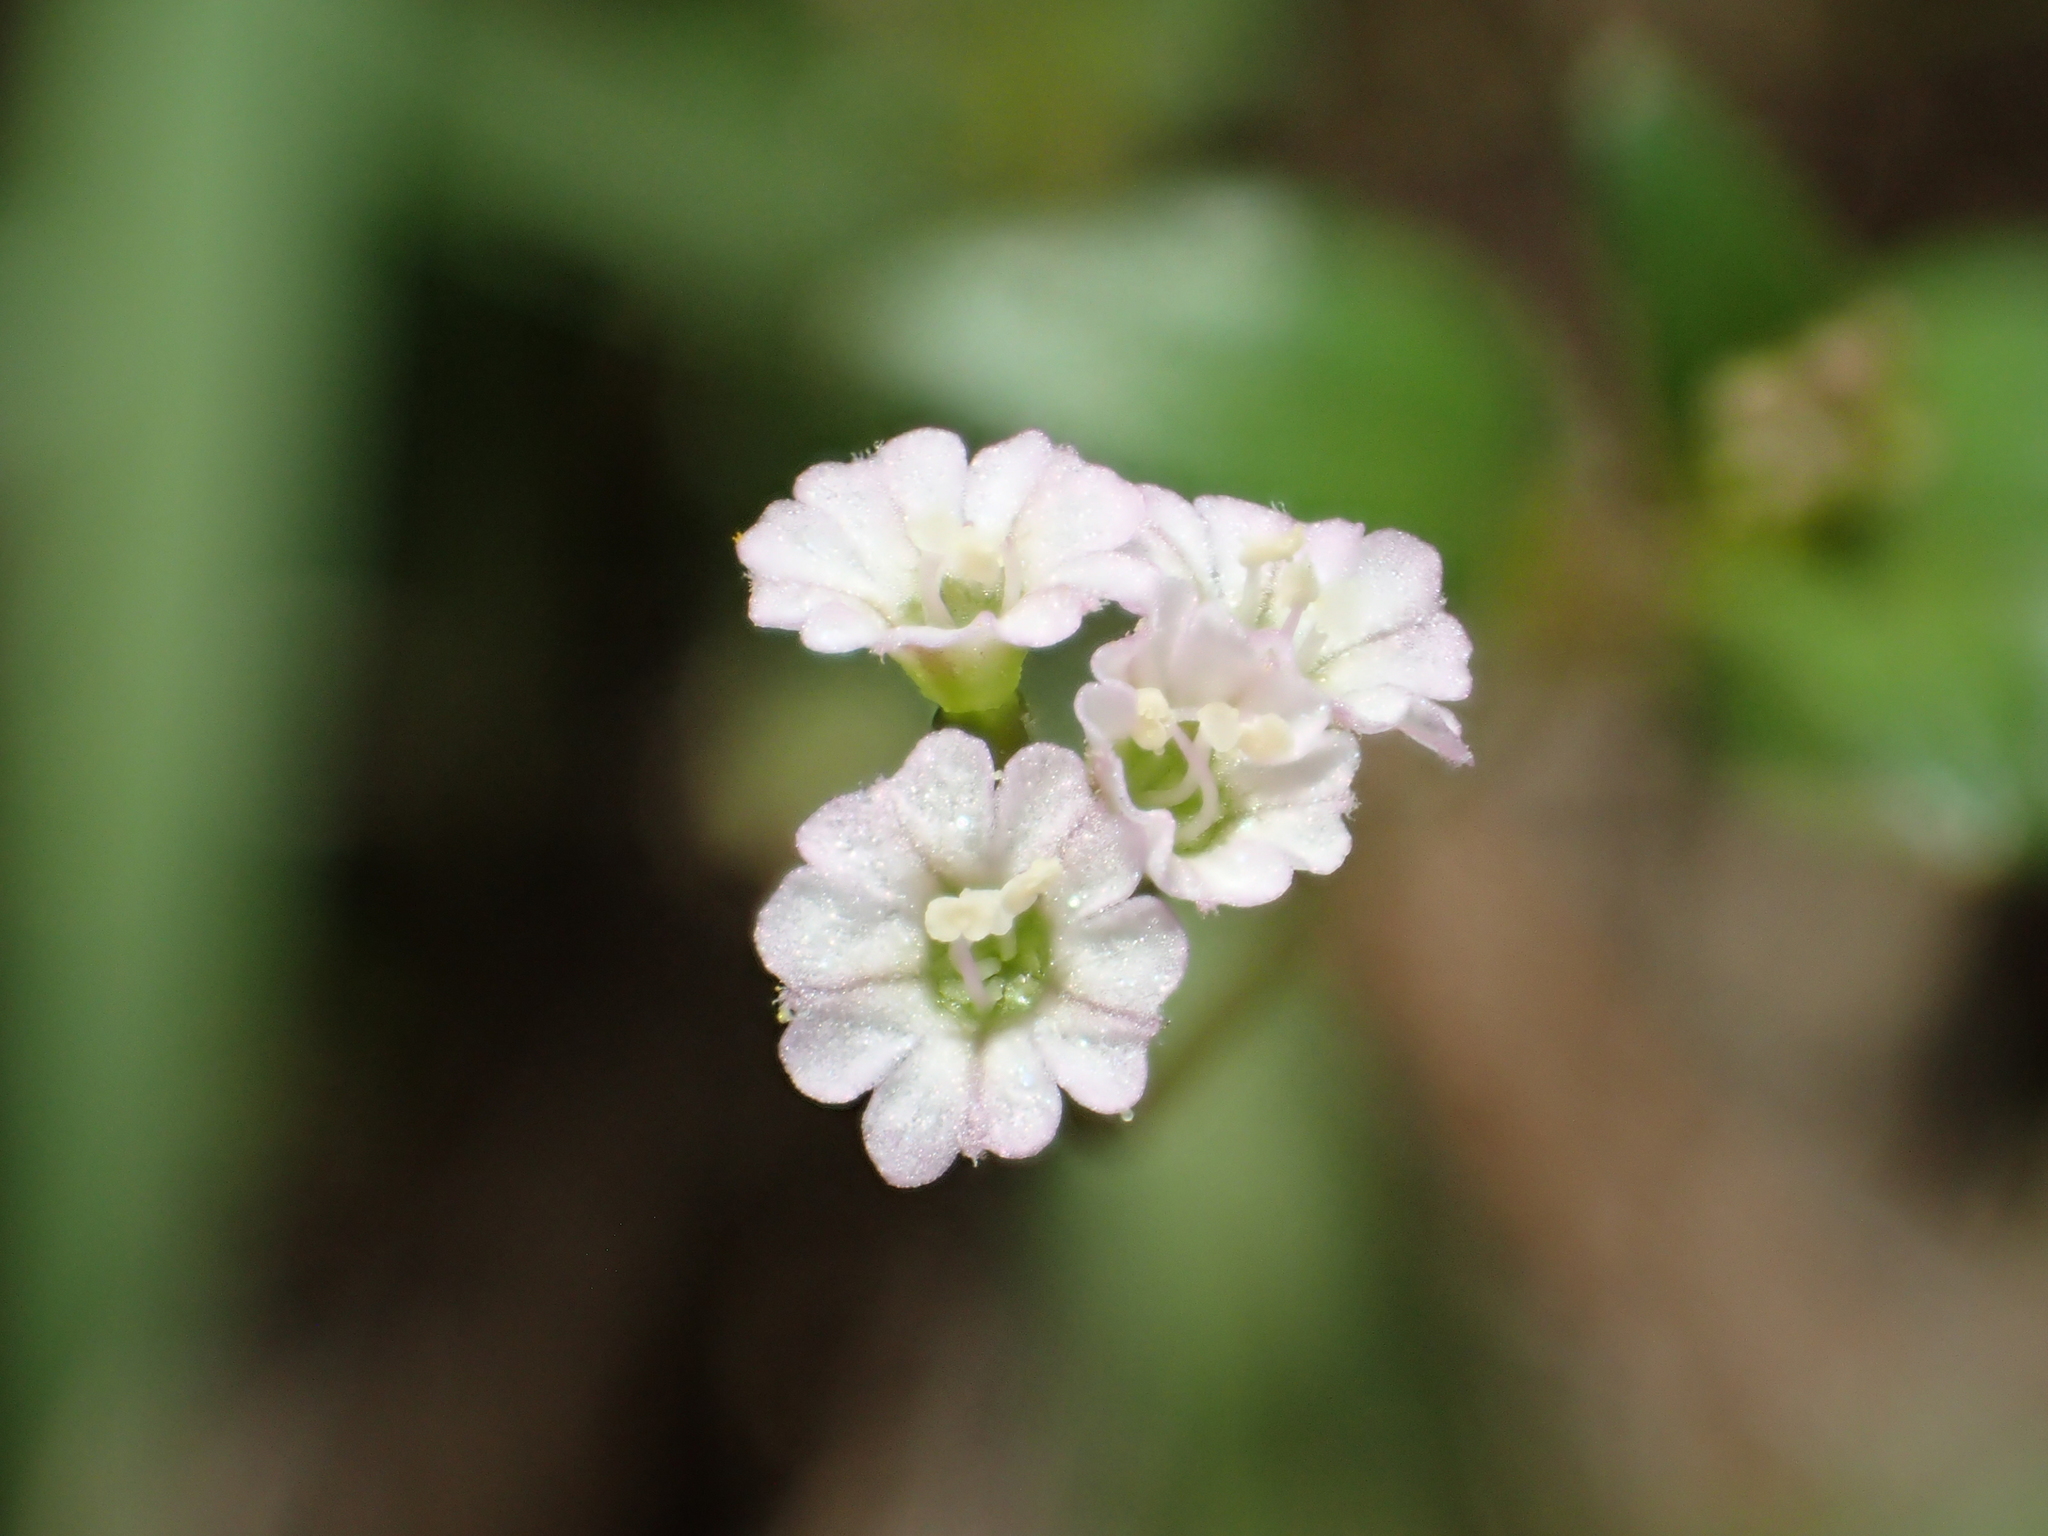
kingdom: Plantae
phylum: Tracheophyta
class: Magnoliopsida
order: Caryophyllales
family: Nyctaginaceae
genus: Boerhavia
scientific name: Boerhavia diffusa
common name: Red spiderling
